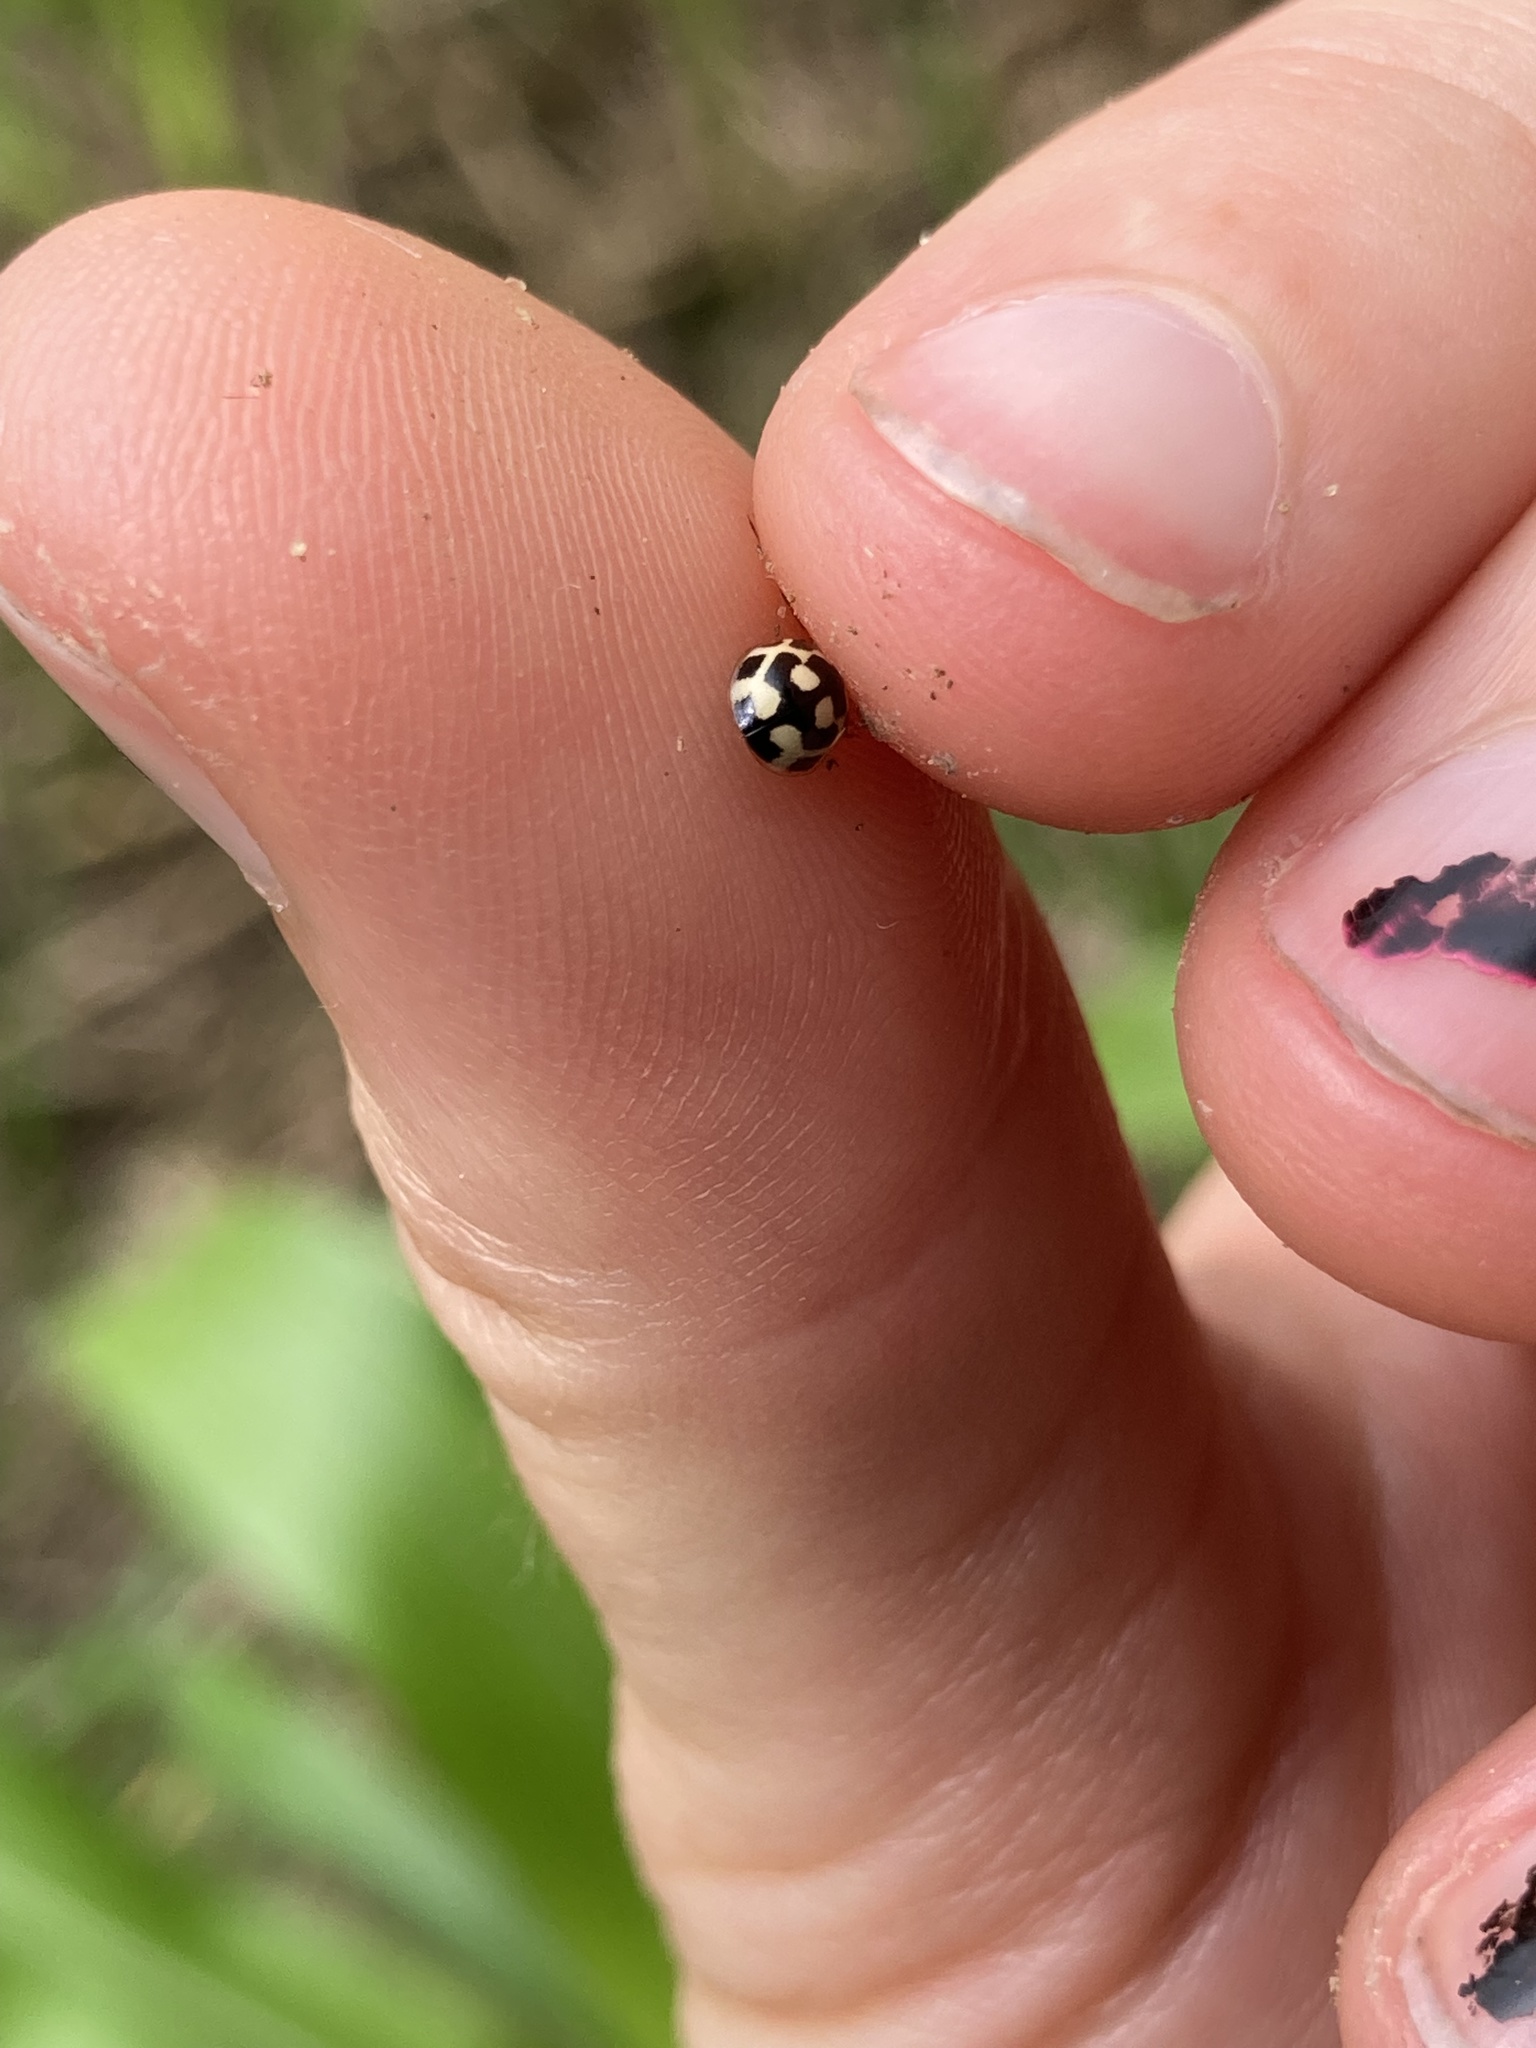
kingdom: Animalia
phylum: Arthropoda
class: Insecta
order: Coleoptera
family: Coccinellidae
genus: Propylaea
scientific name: Propylaea quatuordecimpunctata
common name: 14-spotted ladybird beetle
